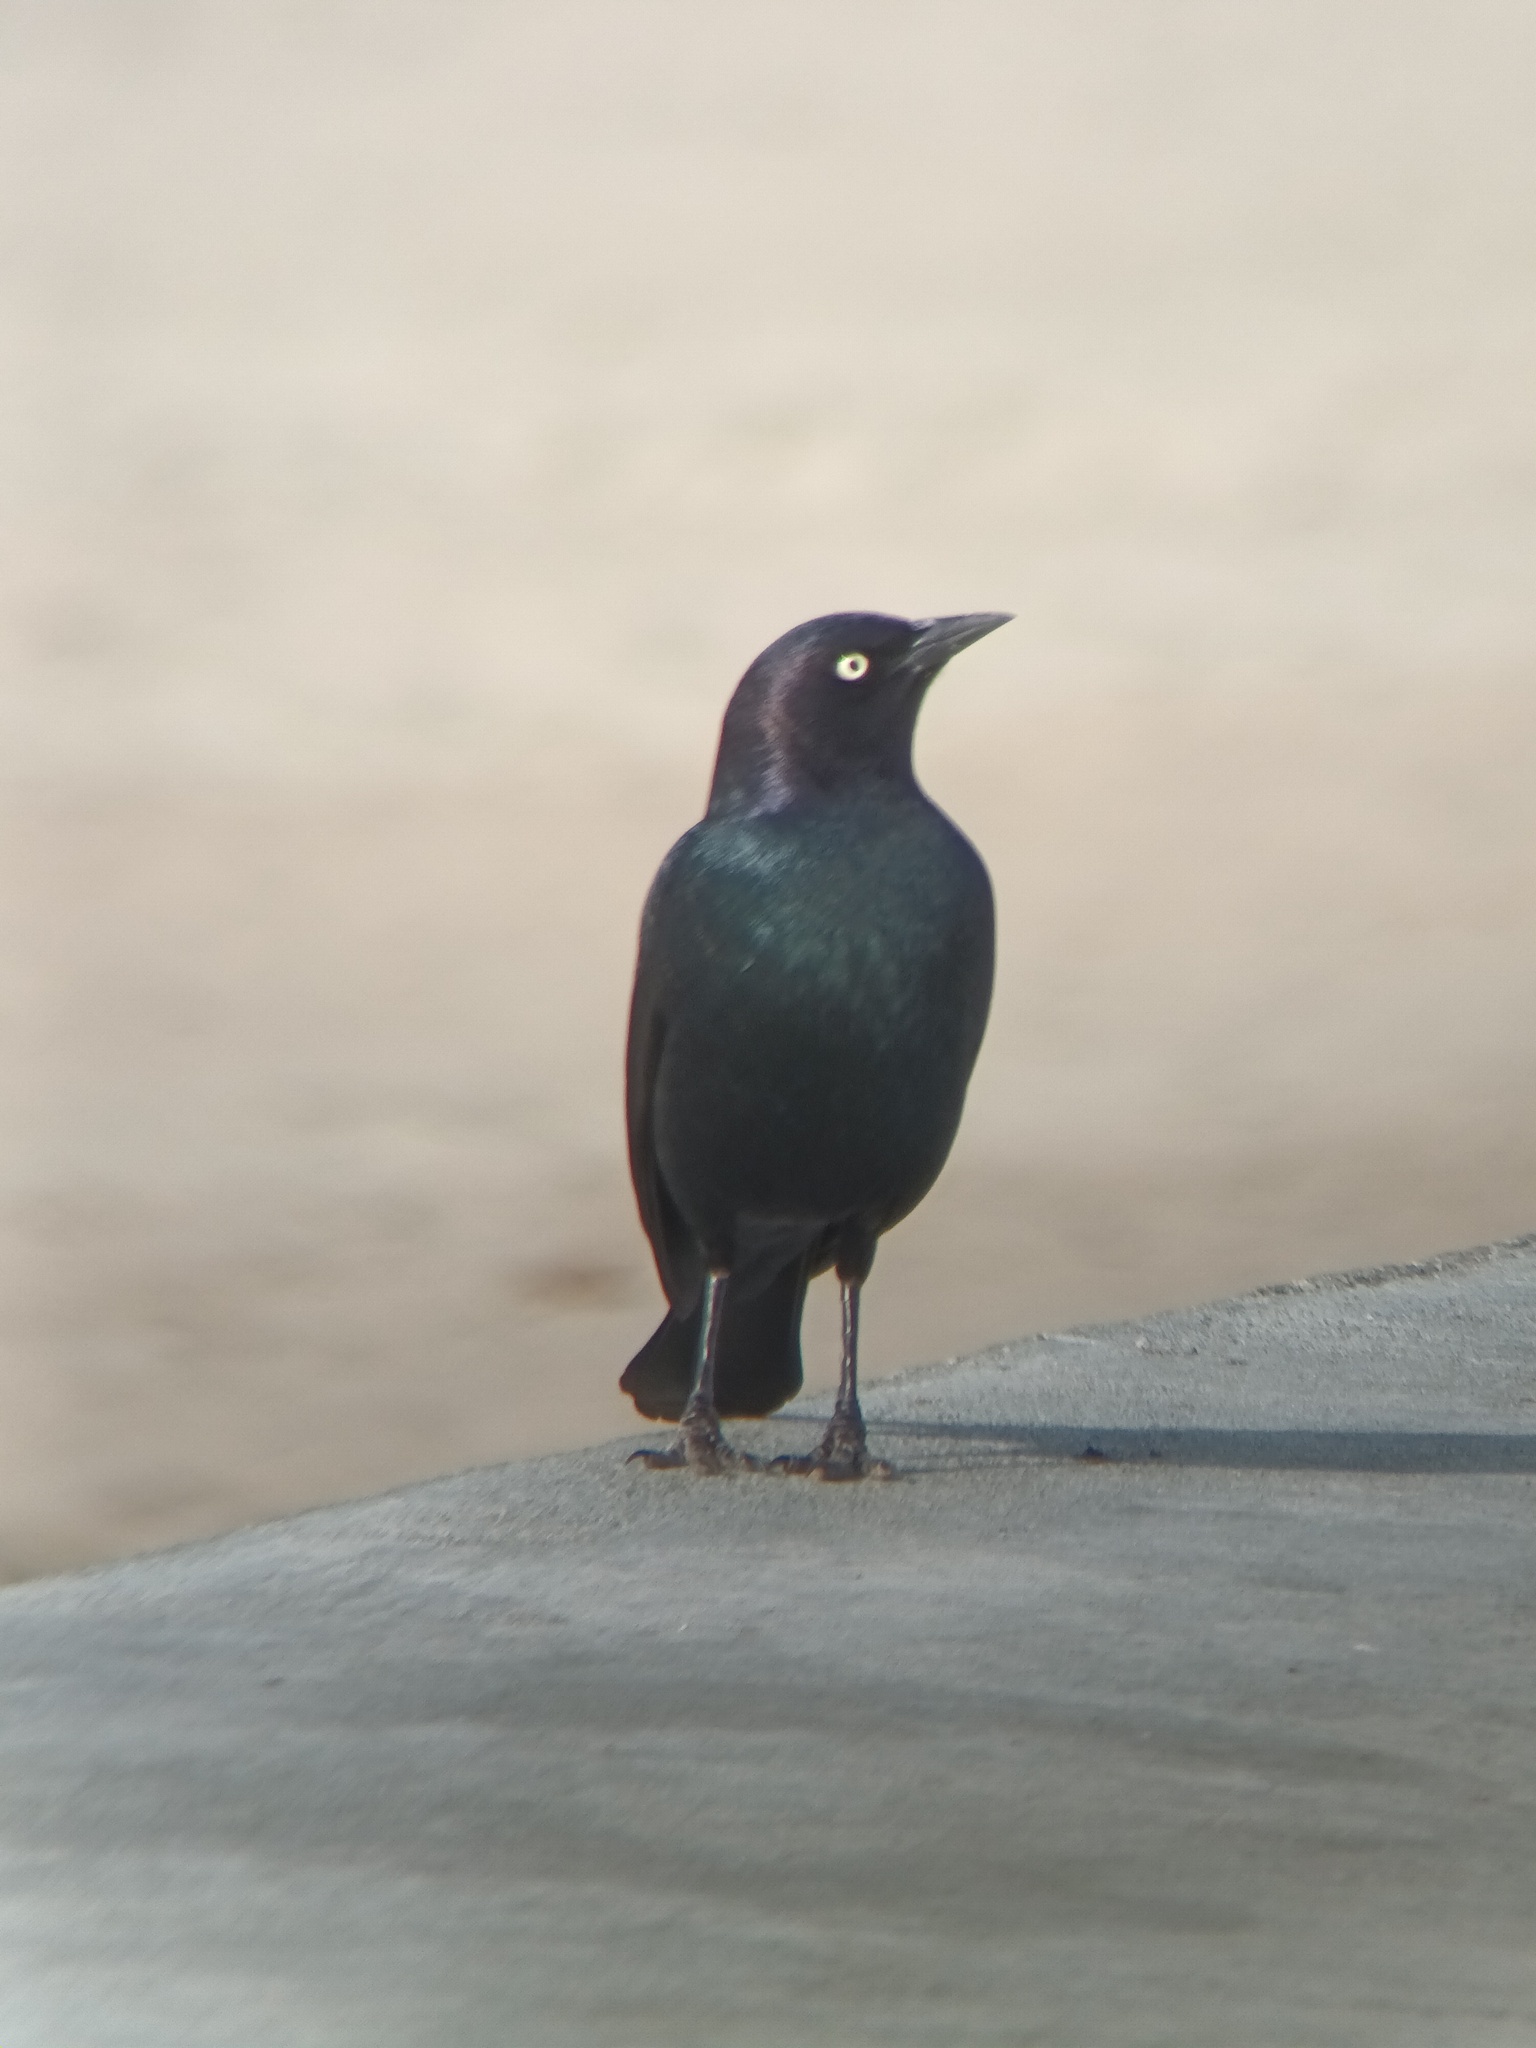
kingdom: Animalia
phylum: Chordata
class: Aves
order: Passeriformes
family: Icteridae
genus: Euphagus
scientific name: Euphagus cyanocephalus
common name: Brewer's blackbird
